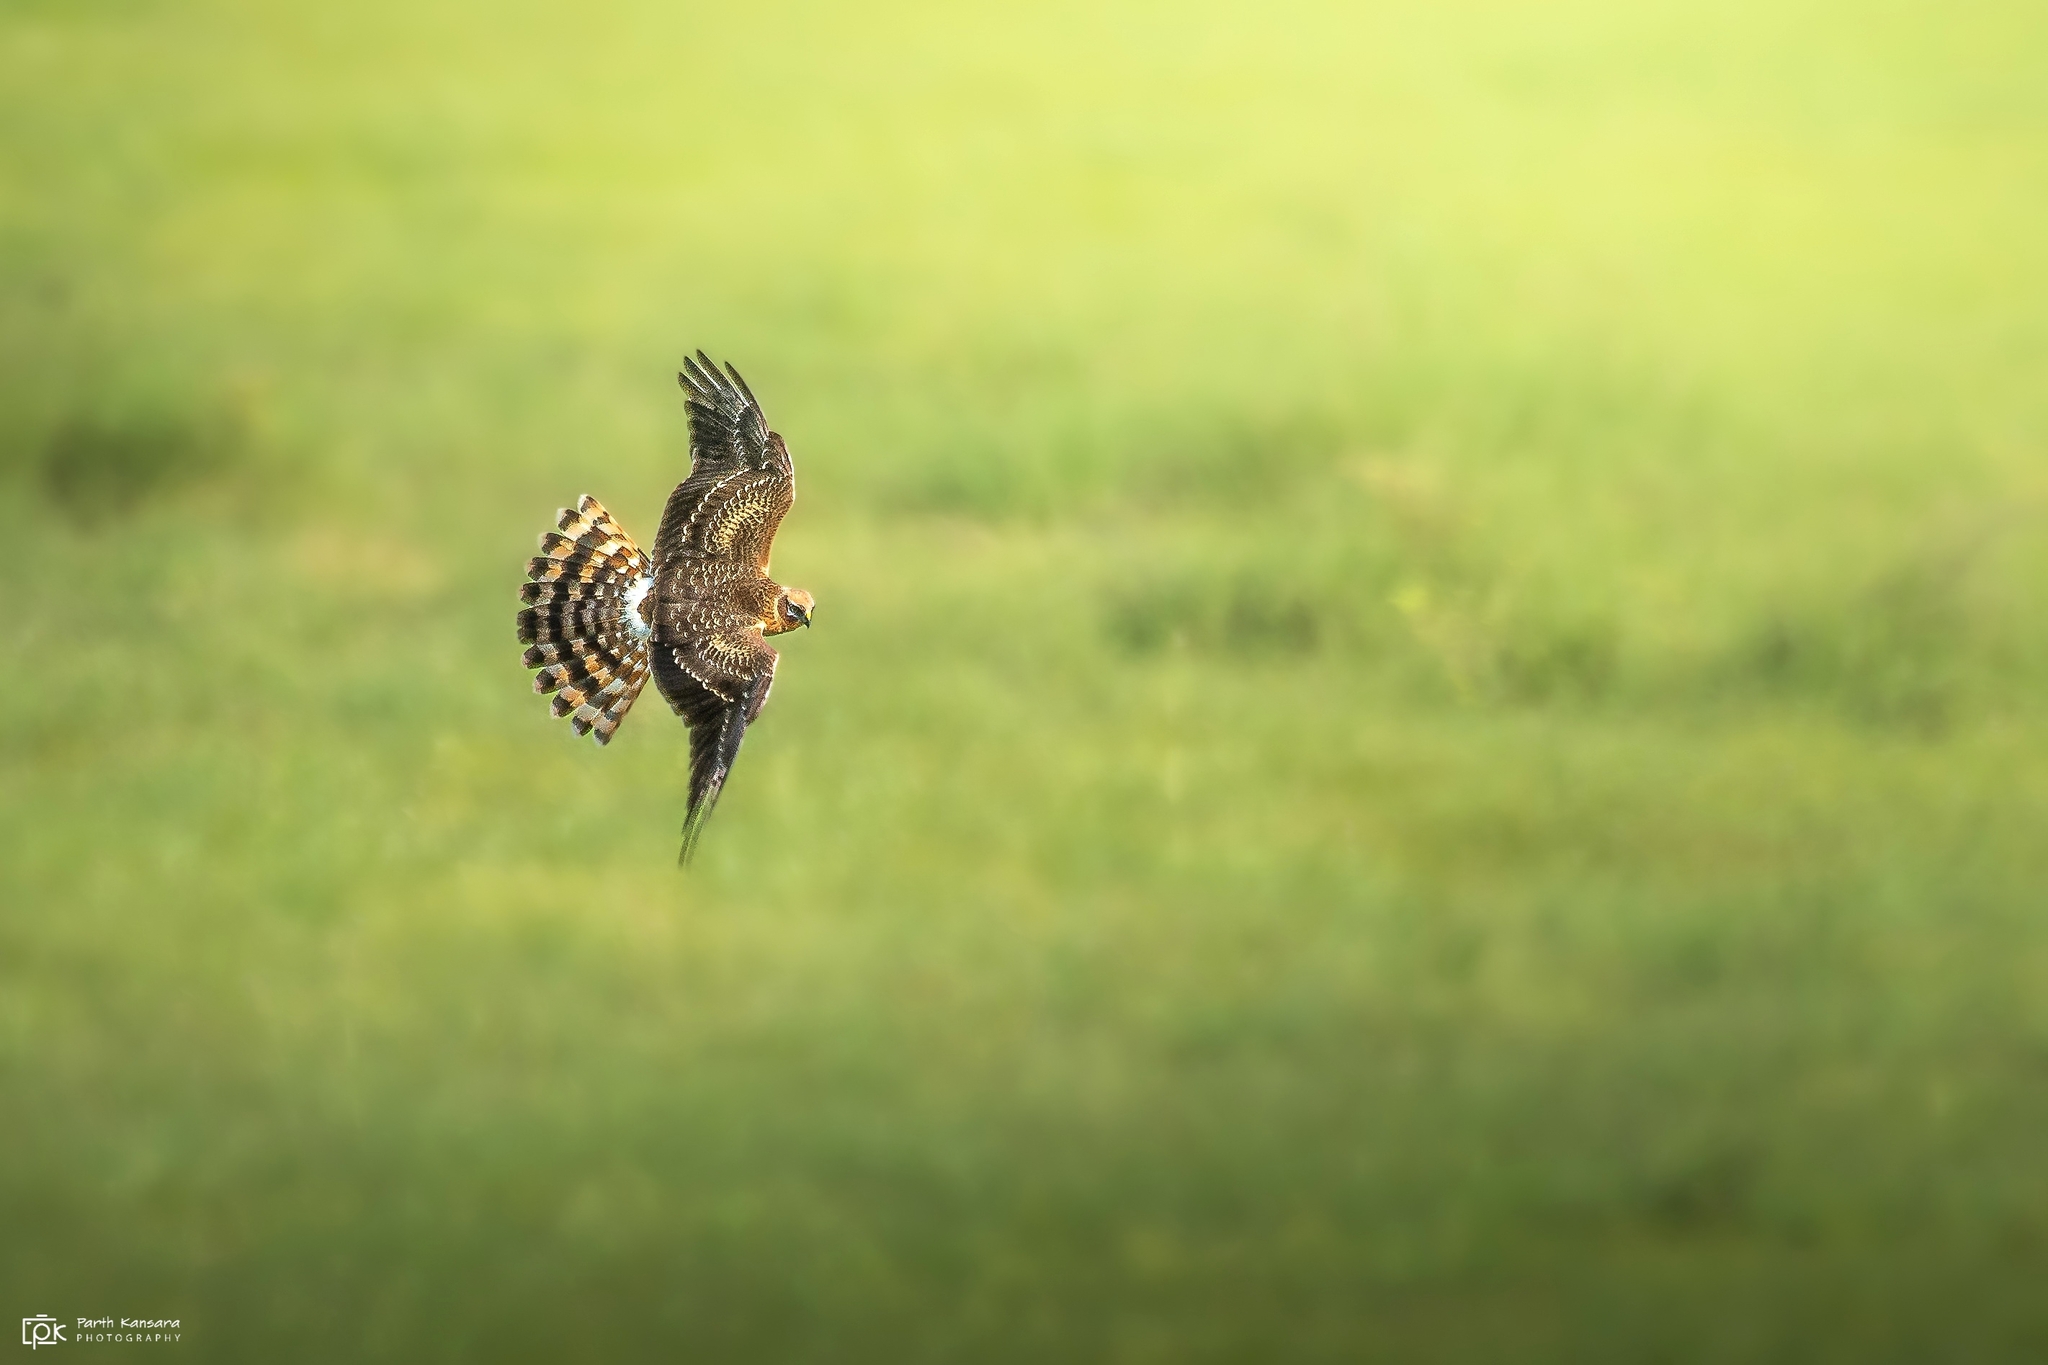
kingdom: Animalia
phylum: Chordata
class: Aves
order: Accipitriformes
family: Accipitridae
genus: Circus
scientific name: Circus pygargus
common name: Montagu's harrier
